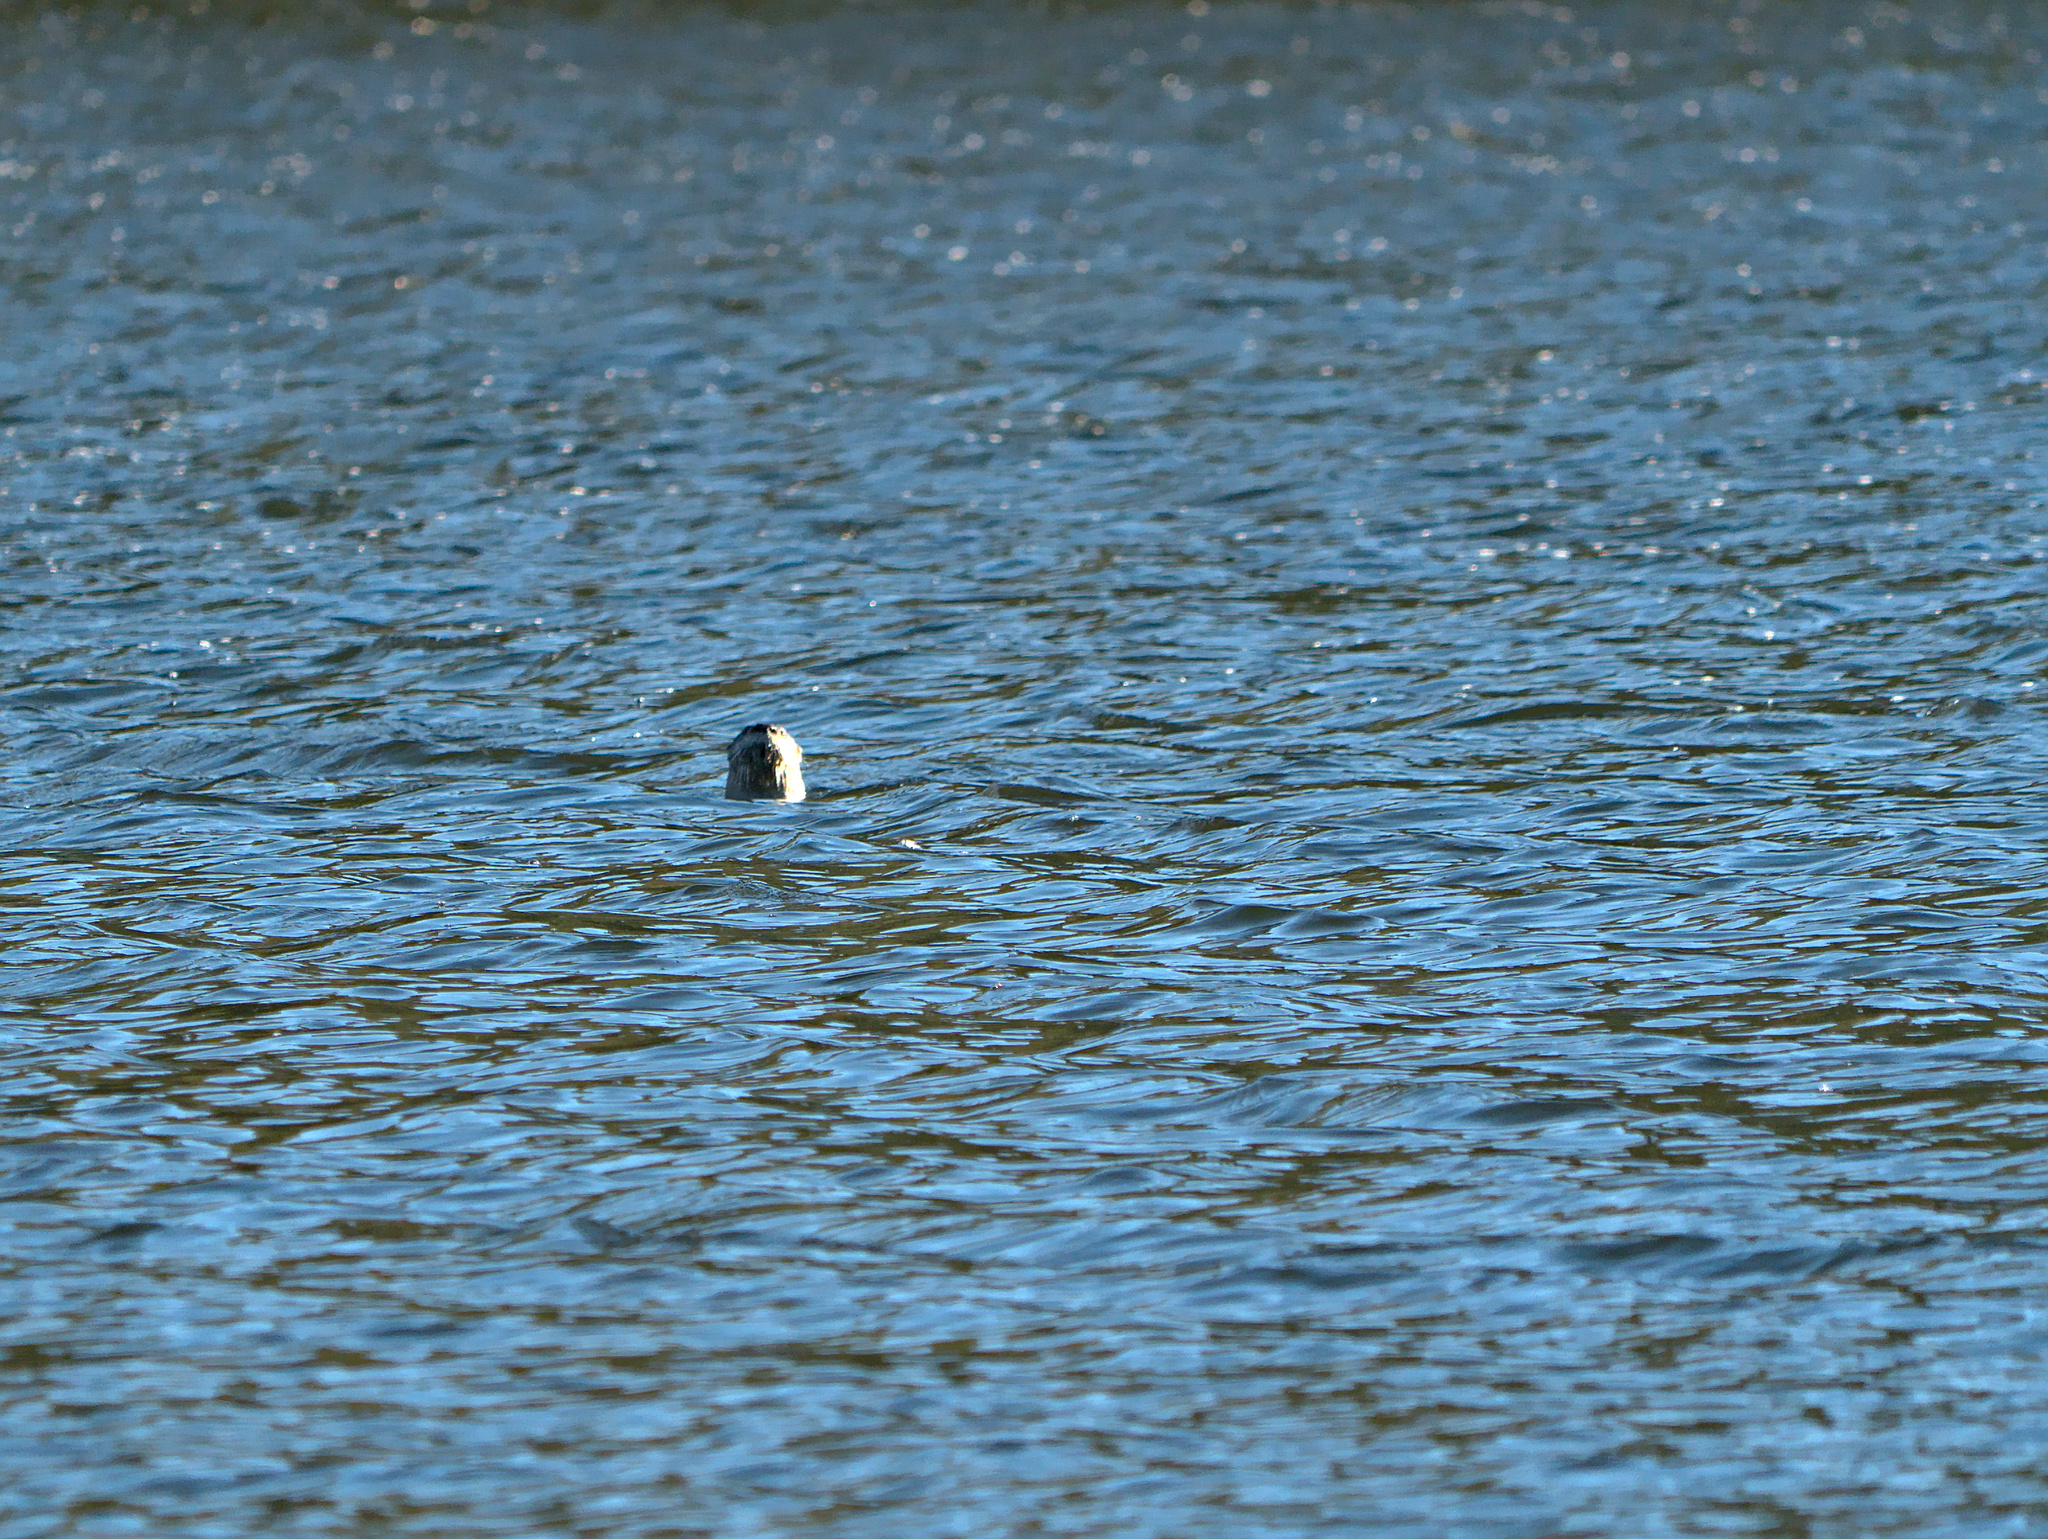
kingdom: Animalia
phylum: Chordata
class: Mammalia
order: Carnivora
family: Mustelidae
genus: Lontra
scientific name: Lontra canadensis
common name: North american river otter
